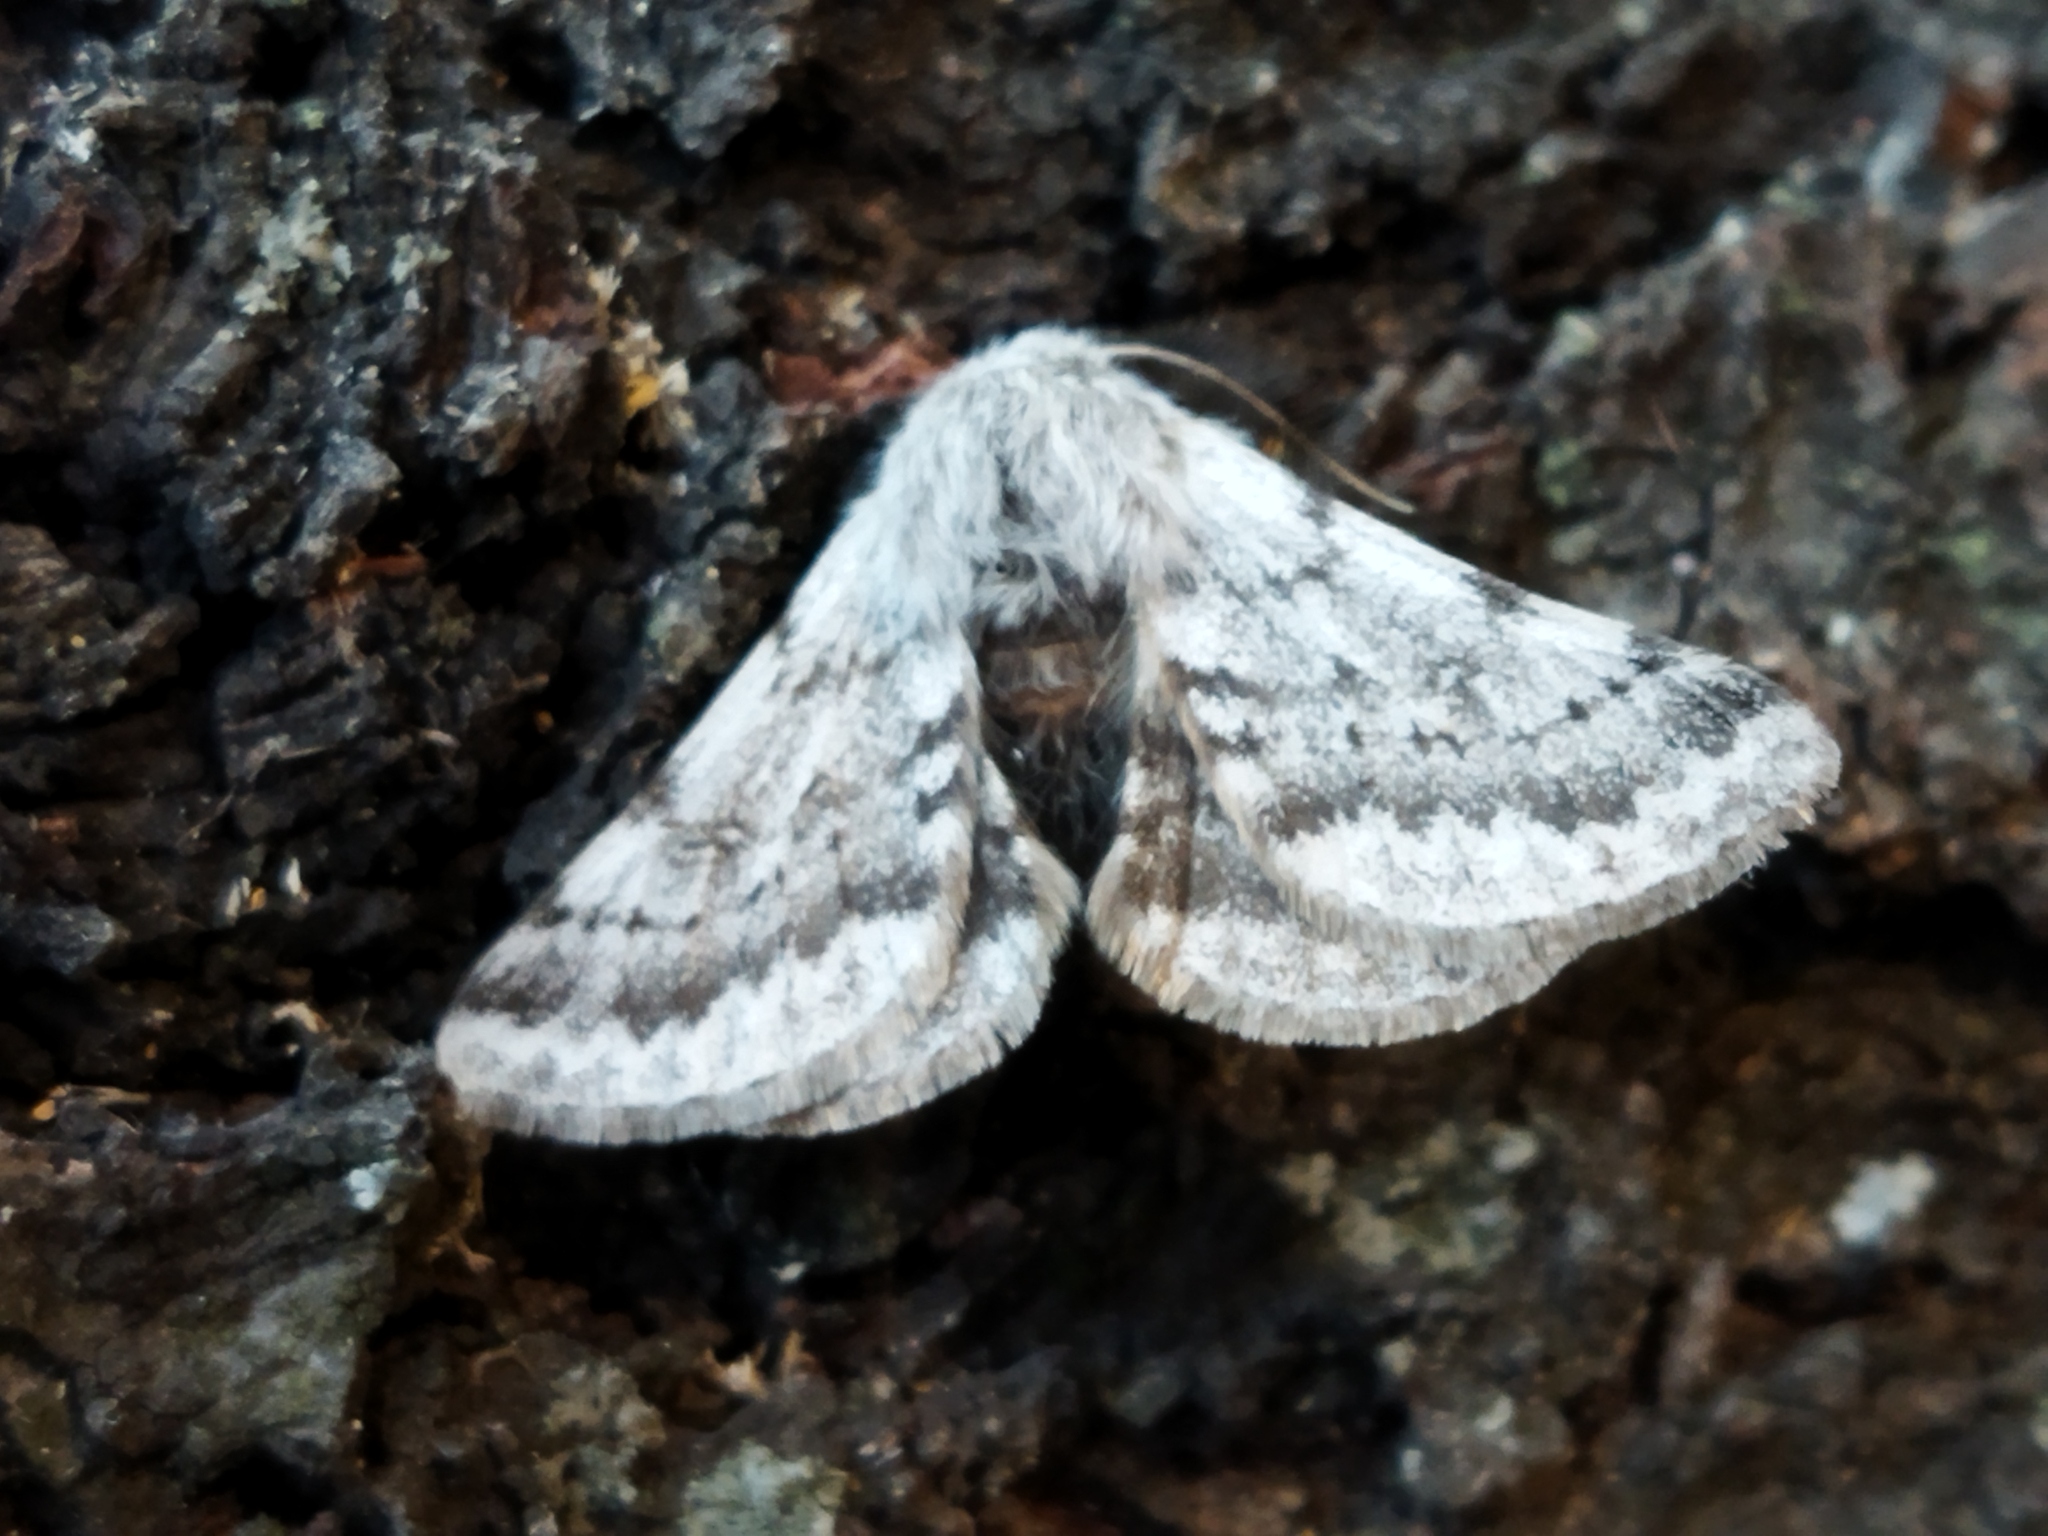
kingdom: Animalia
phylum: Arthropoda
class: Insecta
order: Lepidoptera
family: Geometridae
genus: Lycia
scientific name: Lycia graecarius
